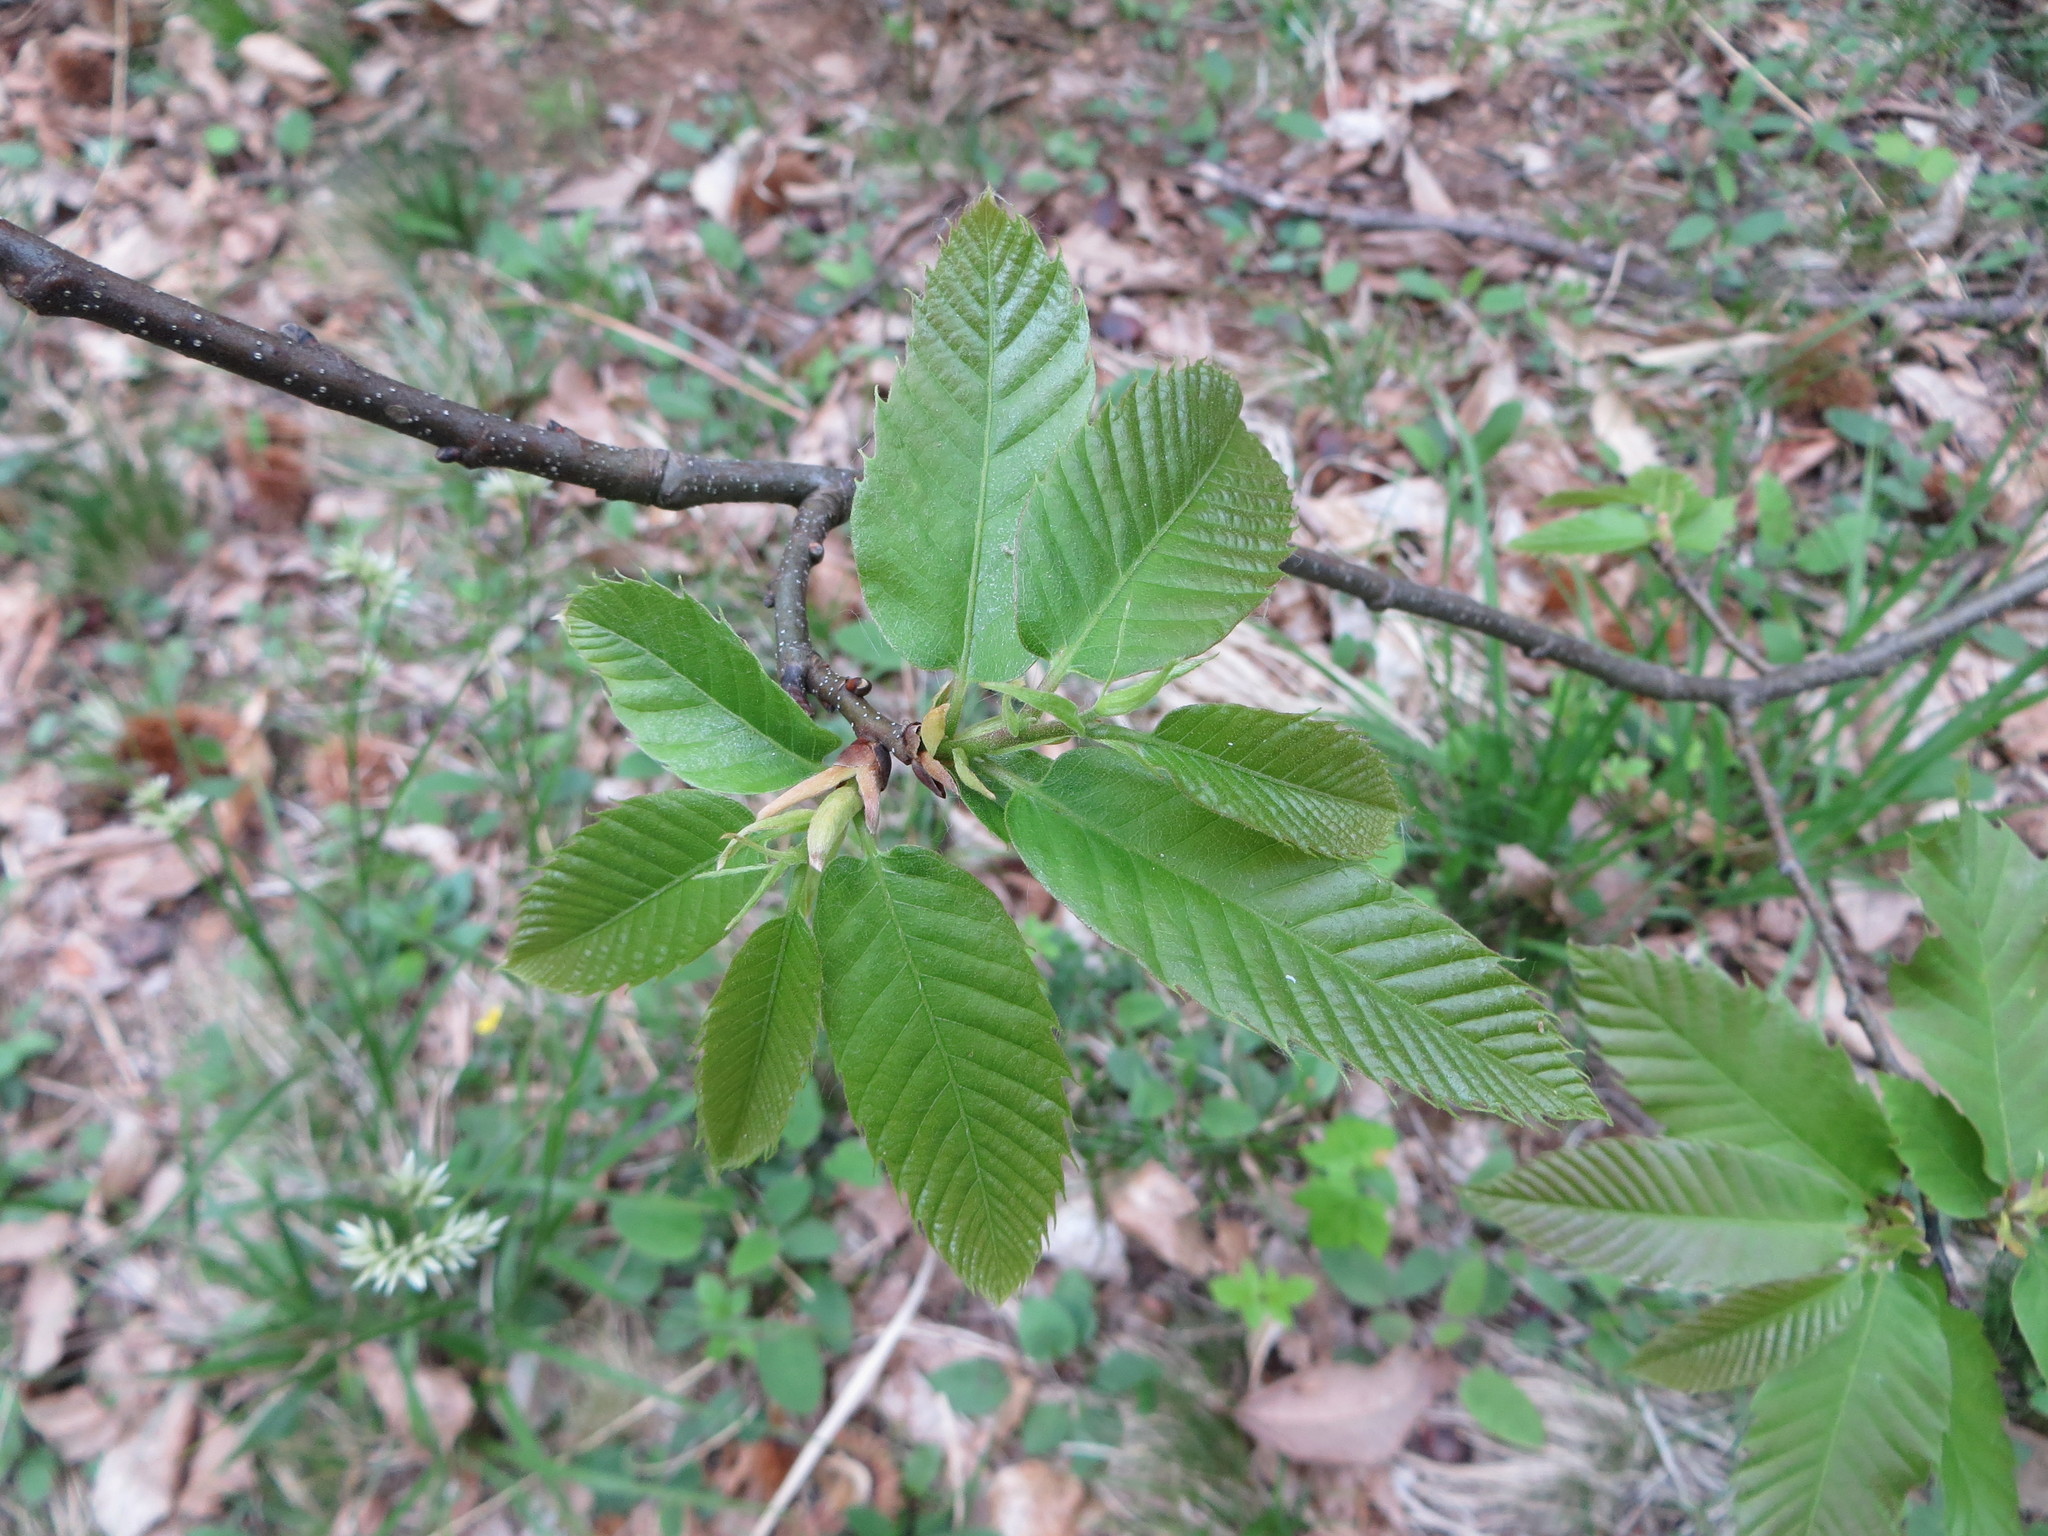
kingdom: Plantae
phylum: Tracheophyta
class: Magnoliopsida
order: Fagales
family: Fagaceae
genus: Castanea
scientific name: Castanea sativa
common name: Sweet chestnut
